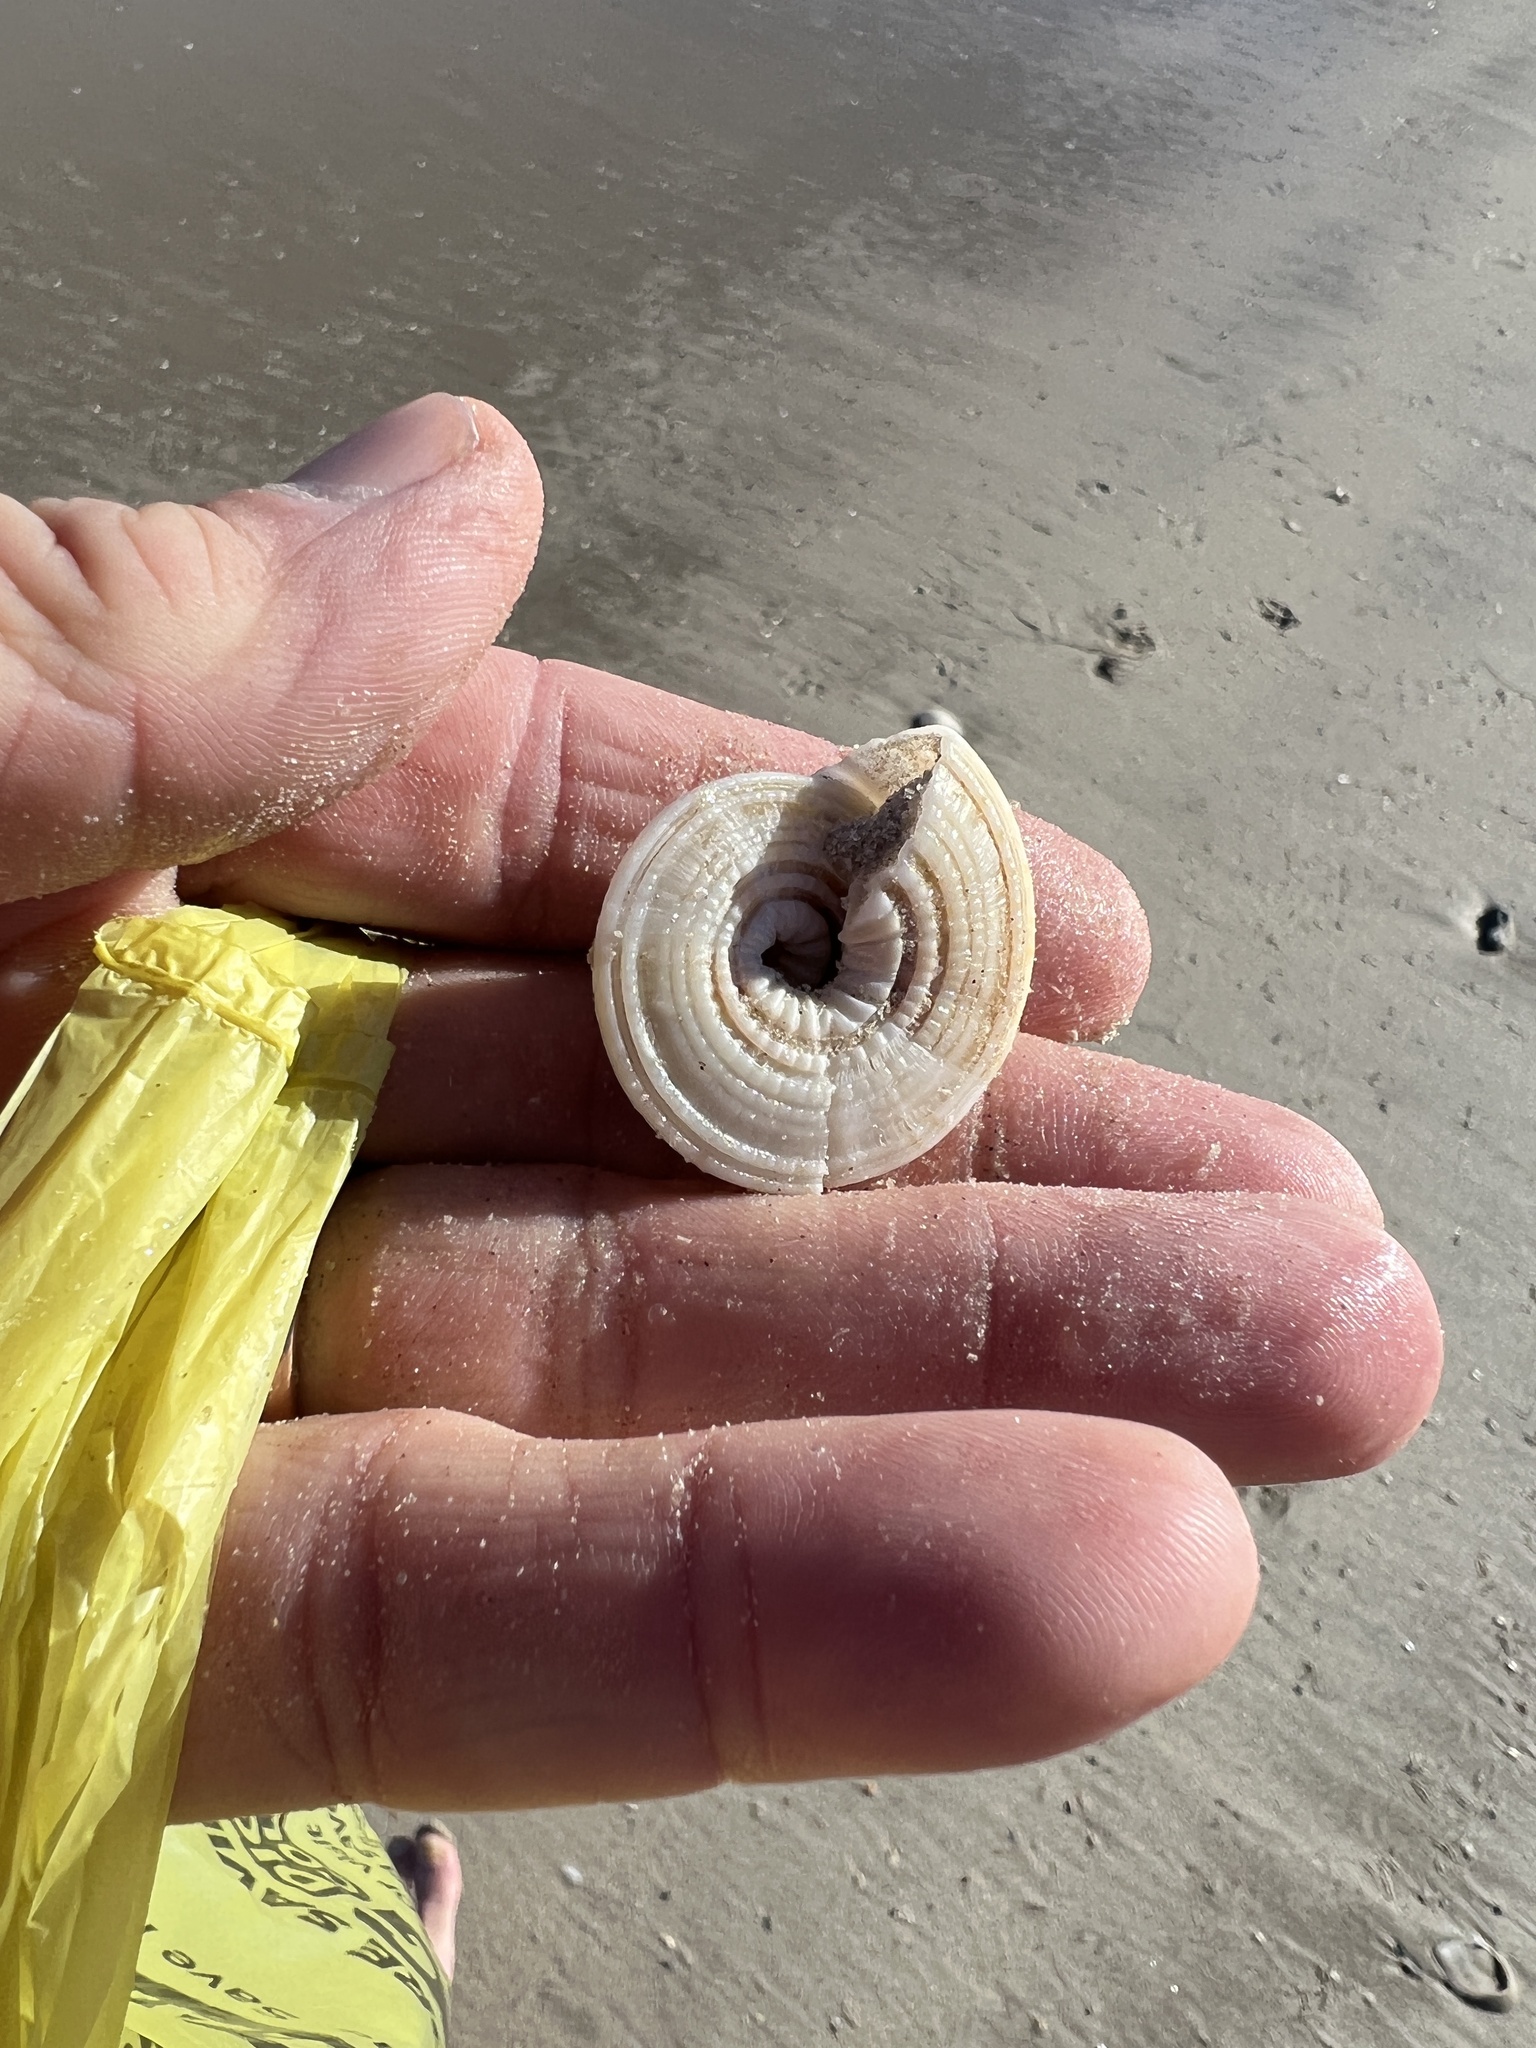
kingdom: Animalia
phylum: Mollusca
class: Gastropoda
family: Architectonicidae
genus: Architectonica
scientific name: Architectonica nobilis
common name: Common sundial
